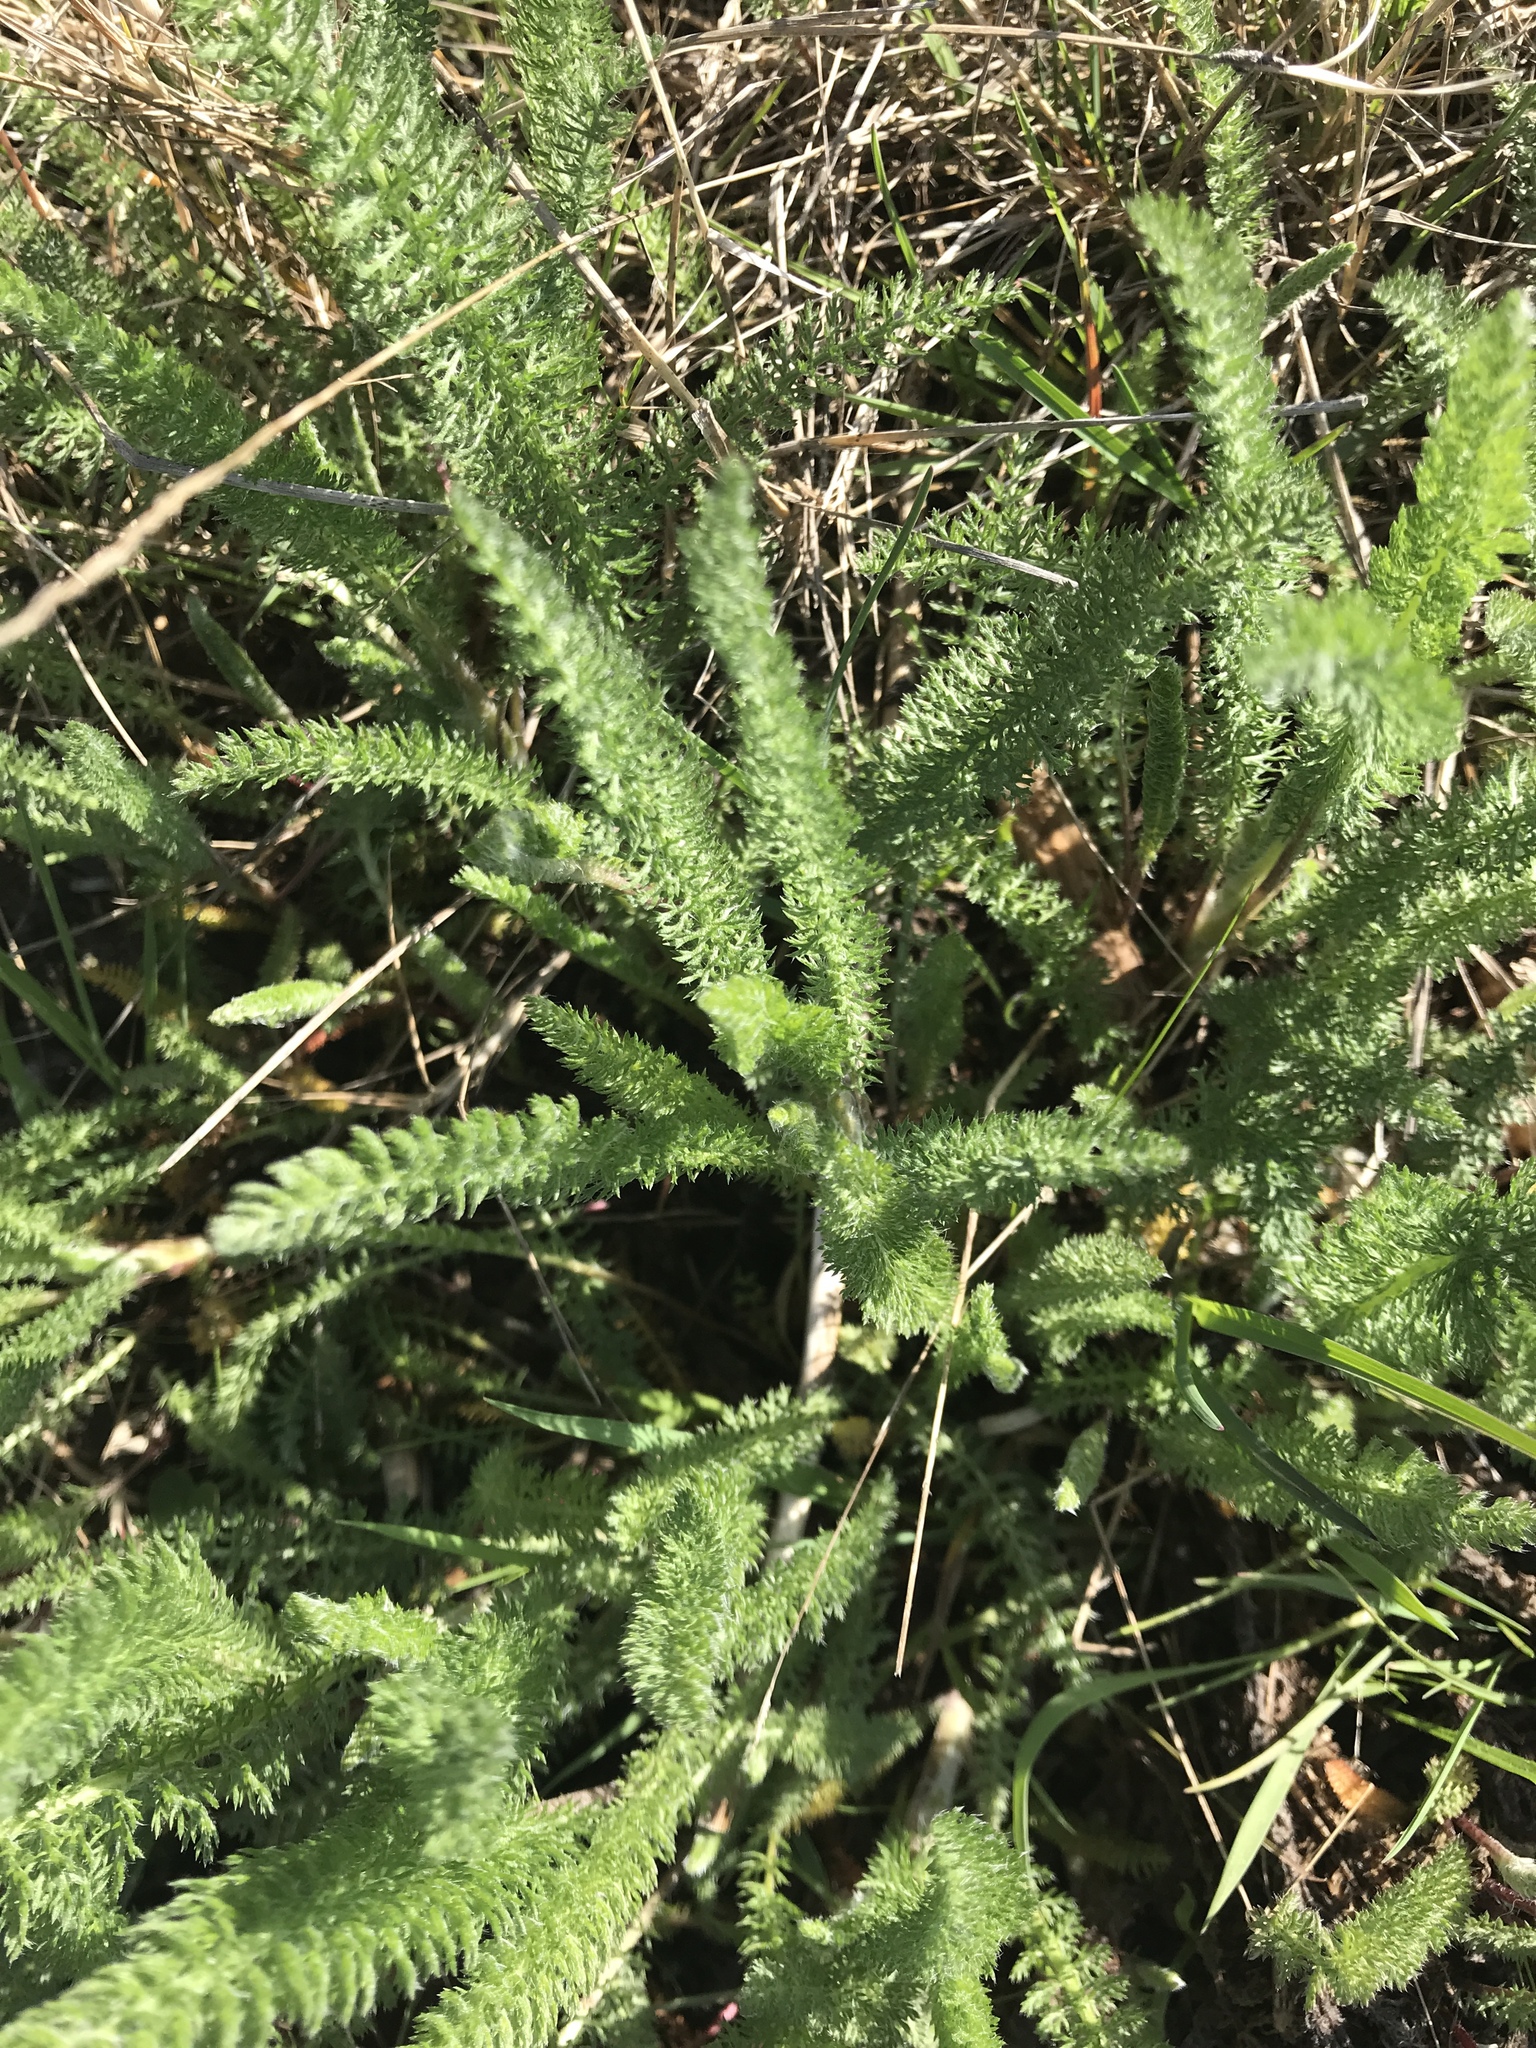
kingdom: Plantae
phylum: Tracheophyta
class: Magnoliopsida
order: Asterales
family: Asteraceae
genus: Achillea
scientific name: Achillea millefolium
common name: Yarrow
